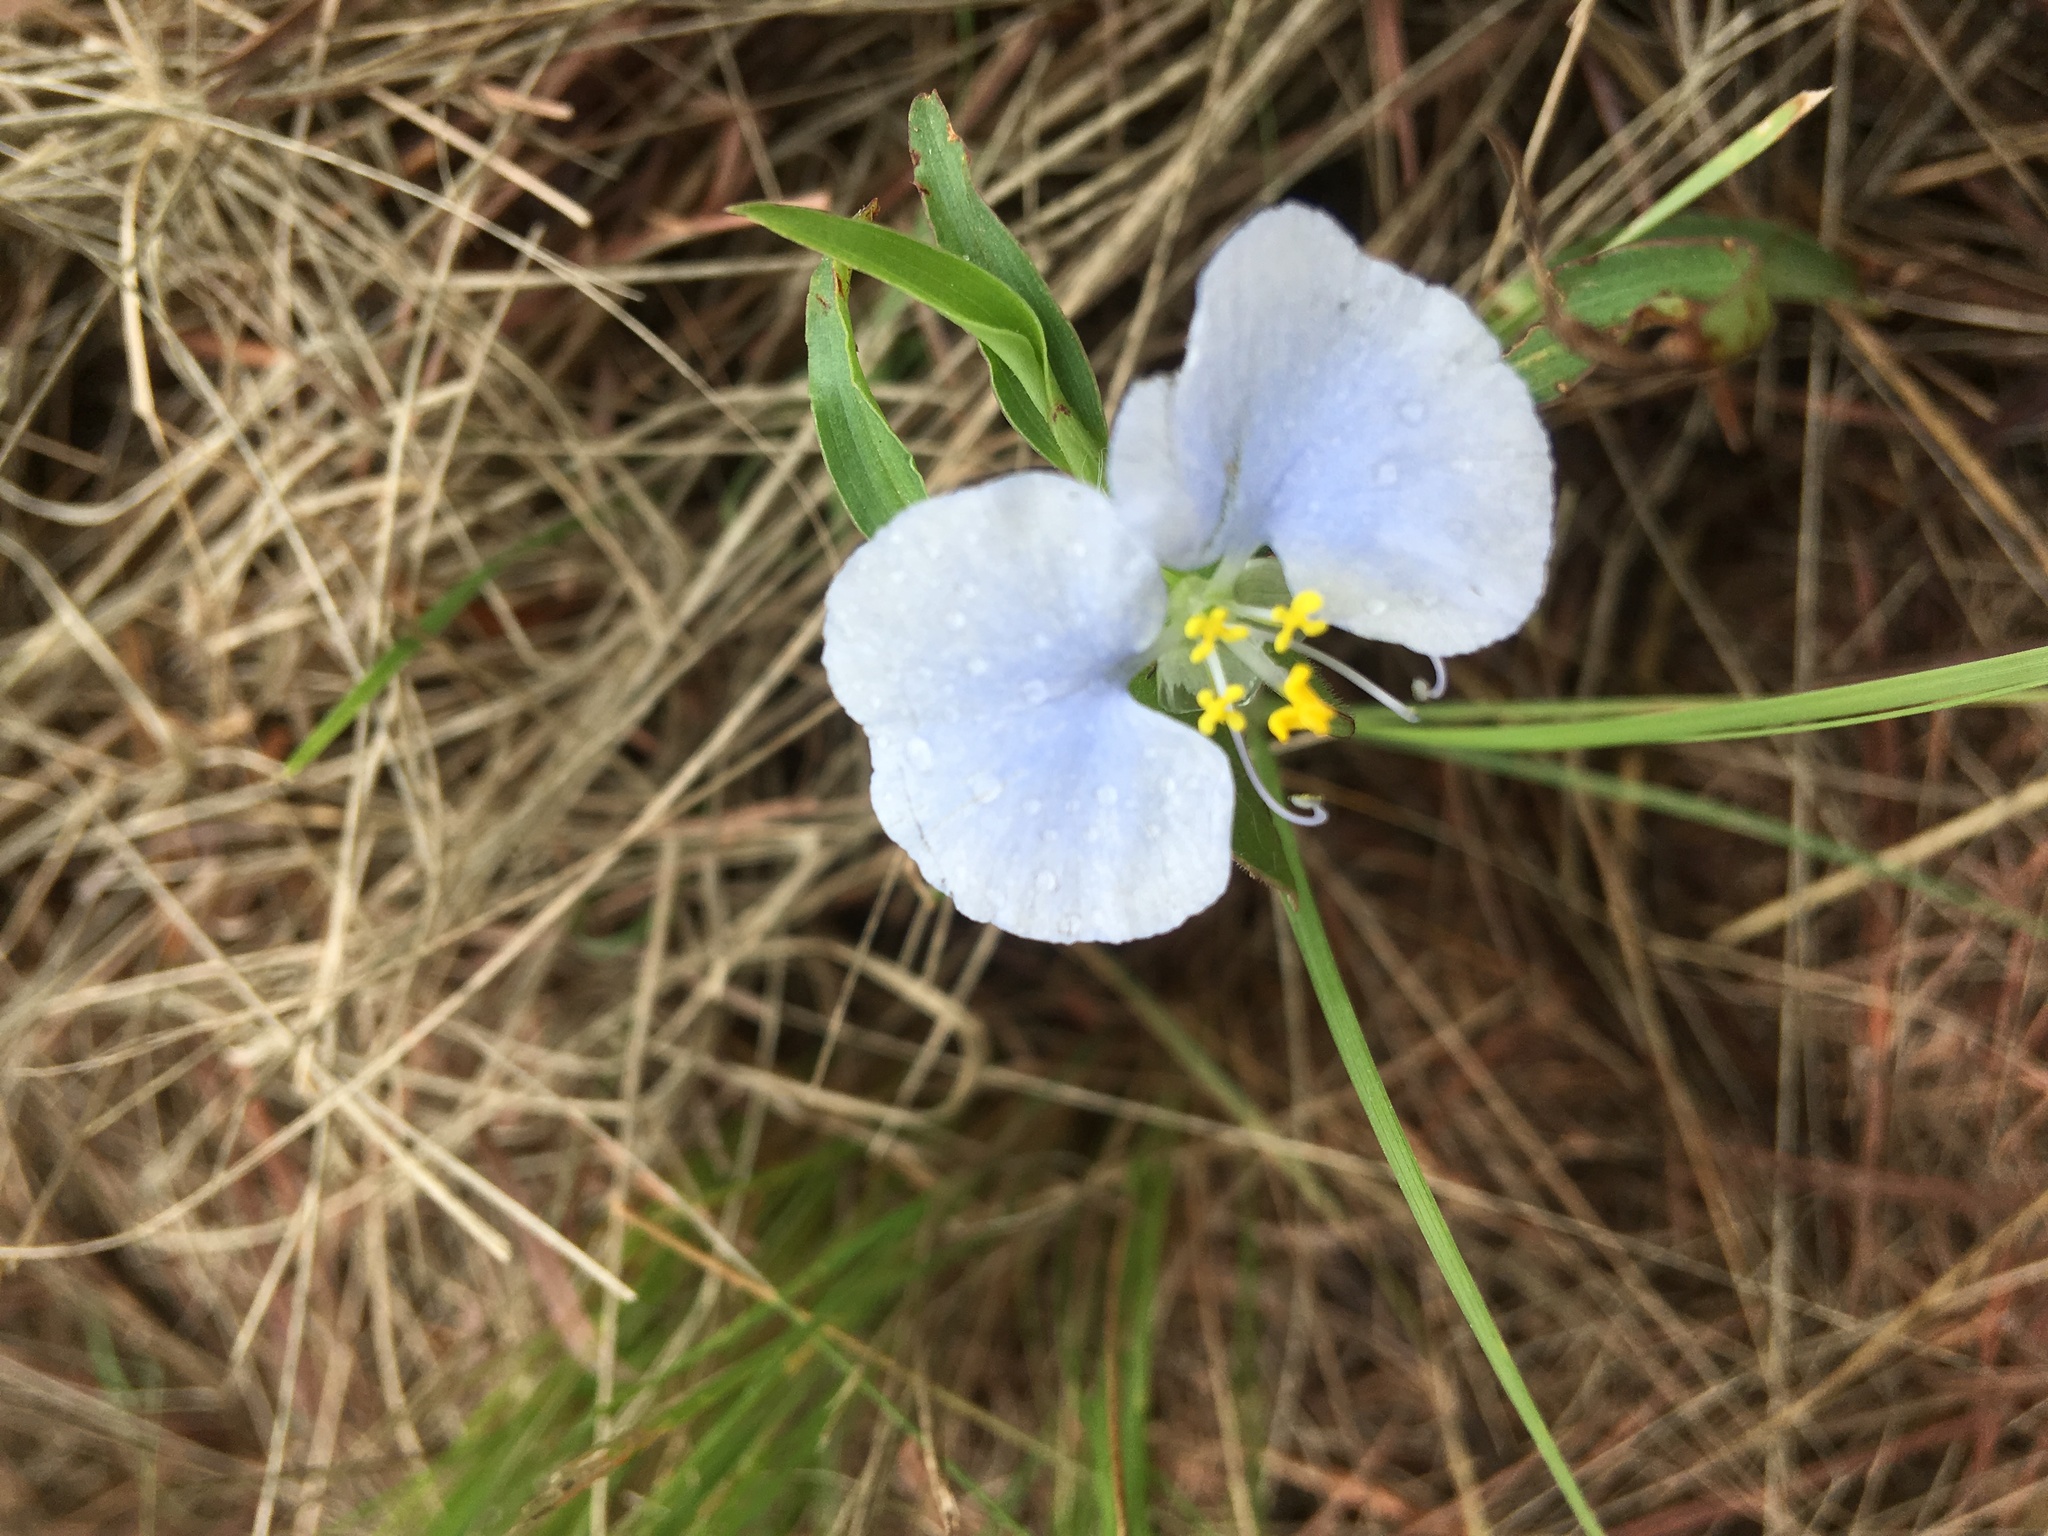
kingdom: Plantae
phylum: Tracheophyta
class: Liliopsida
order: Commelinales
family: Commelinaceae
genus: Commelina
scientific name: Commelina erecta
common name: Blousel blommetjie
